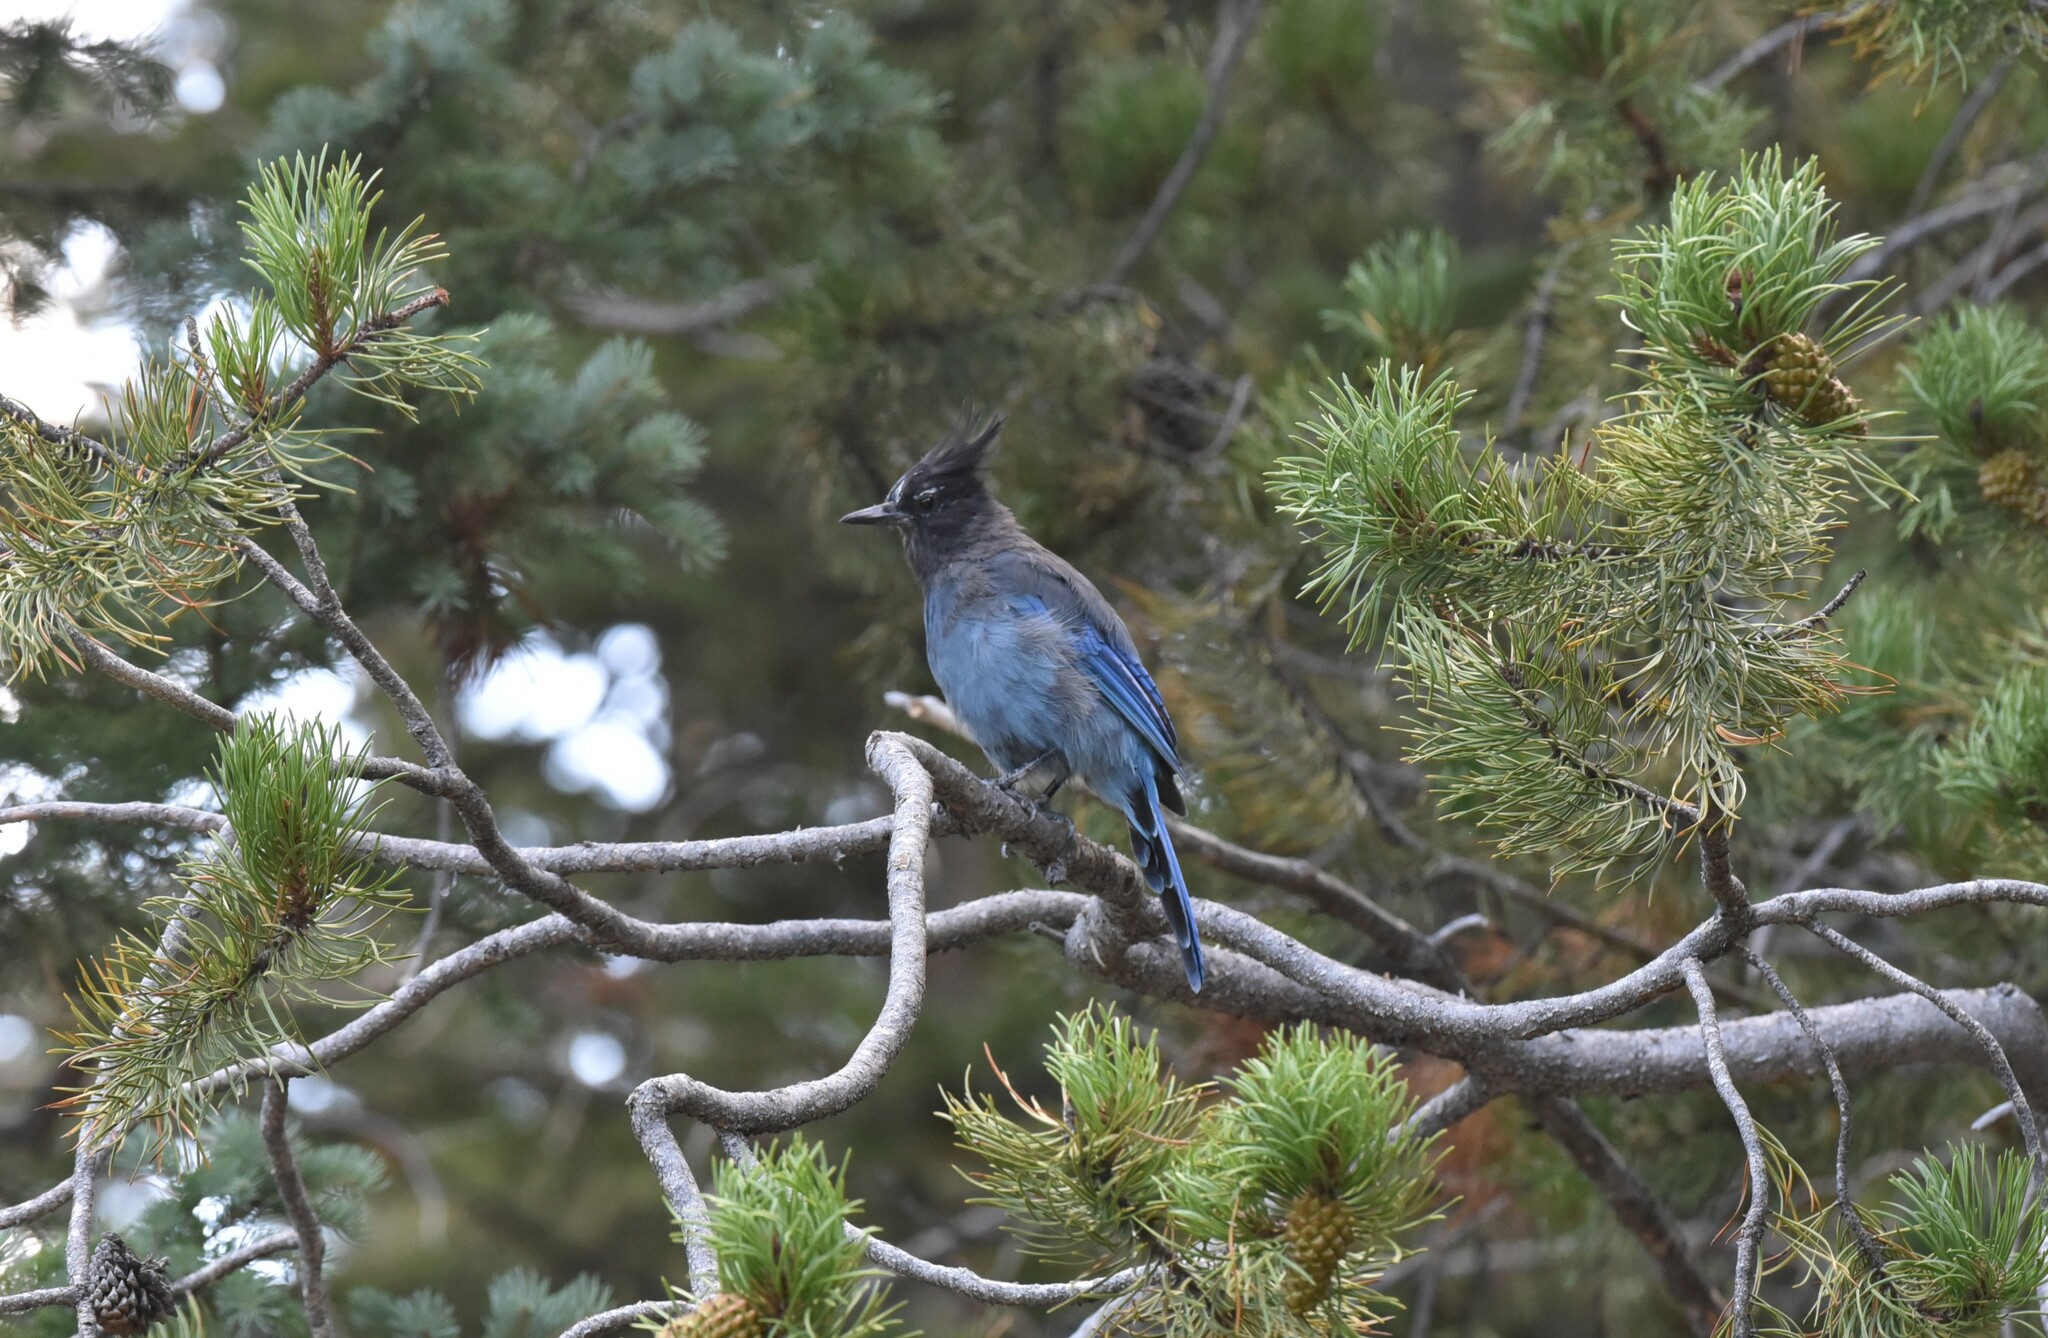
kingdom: Animalia
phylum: Chordata
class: Aves
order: Passeriformes
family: Corvidae
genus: Cyanocitta
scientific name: Cyanocitta stelleri
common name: Steller's jay
